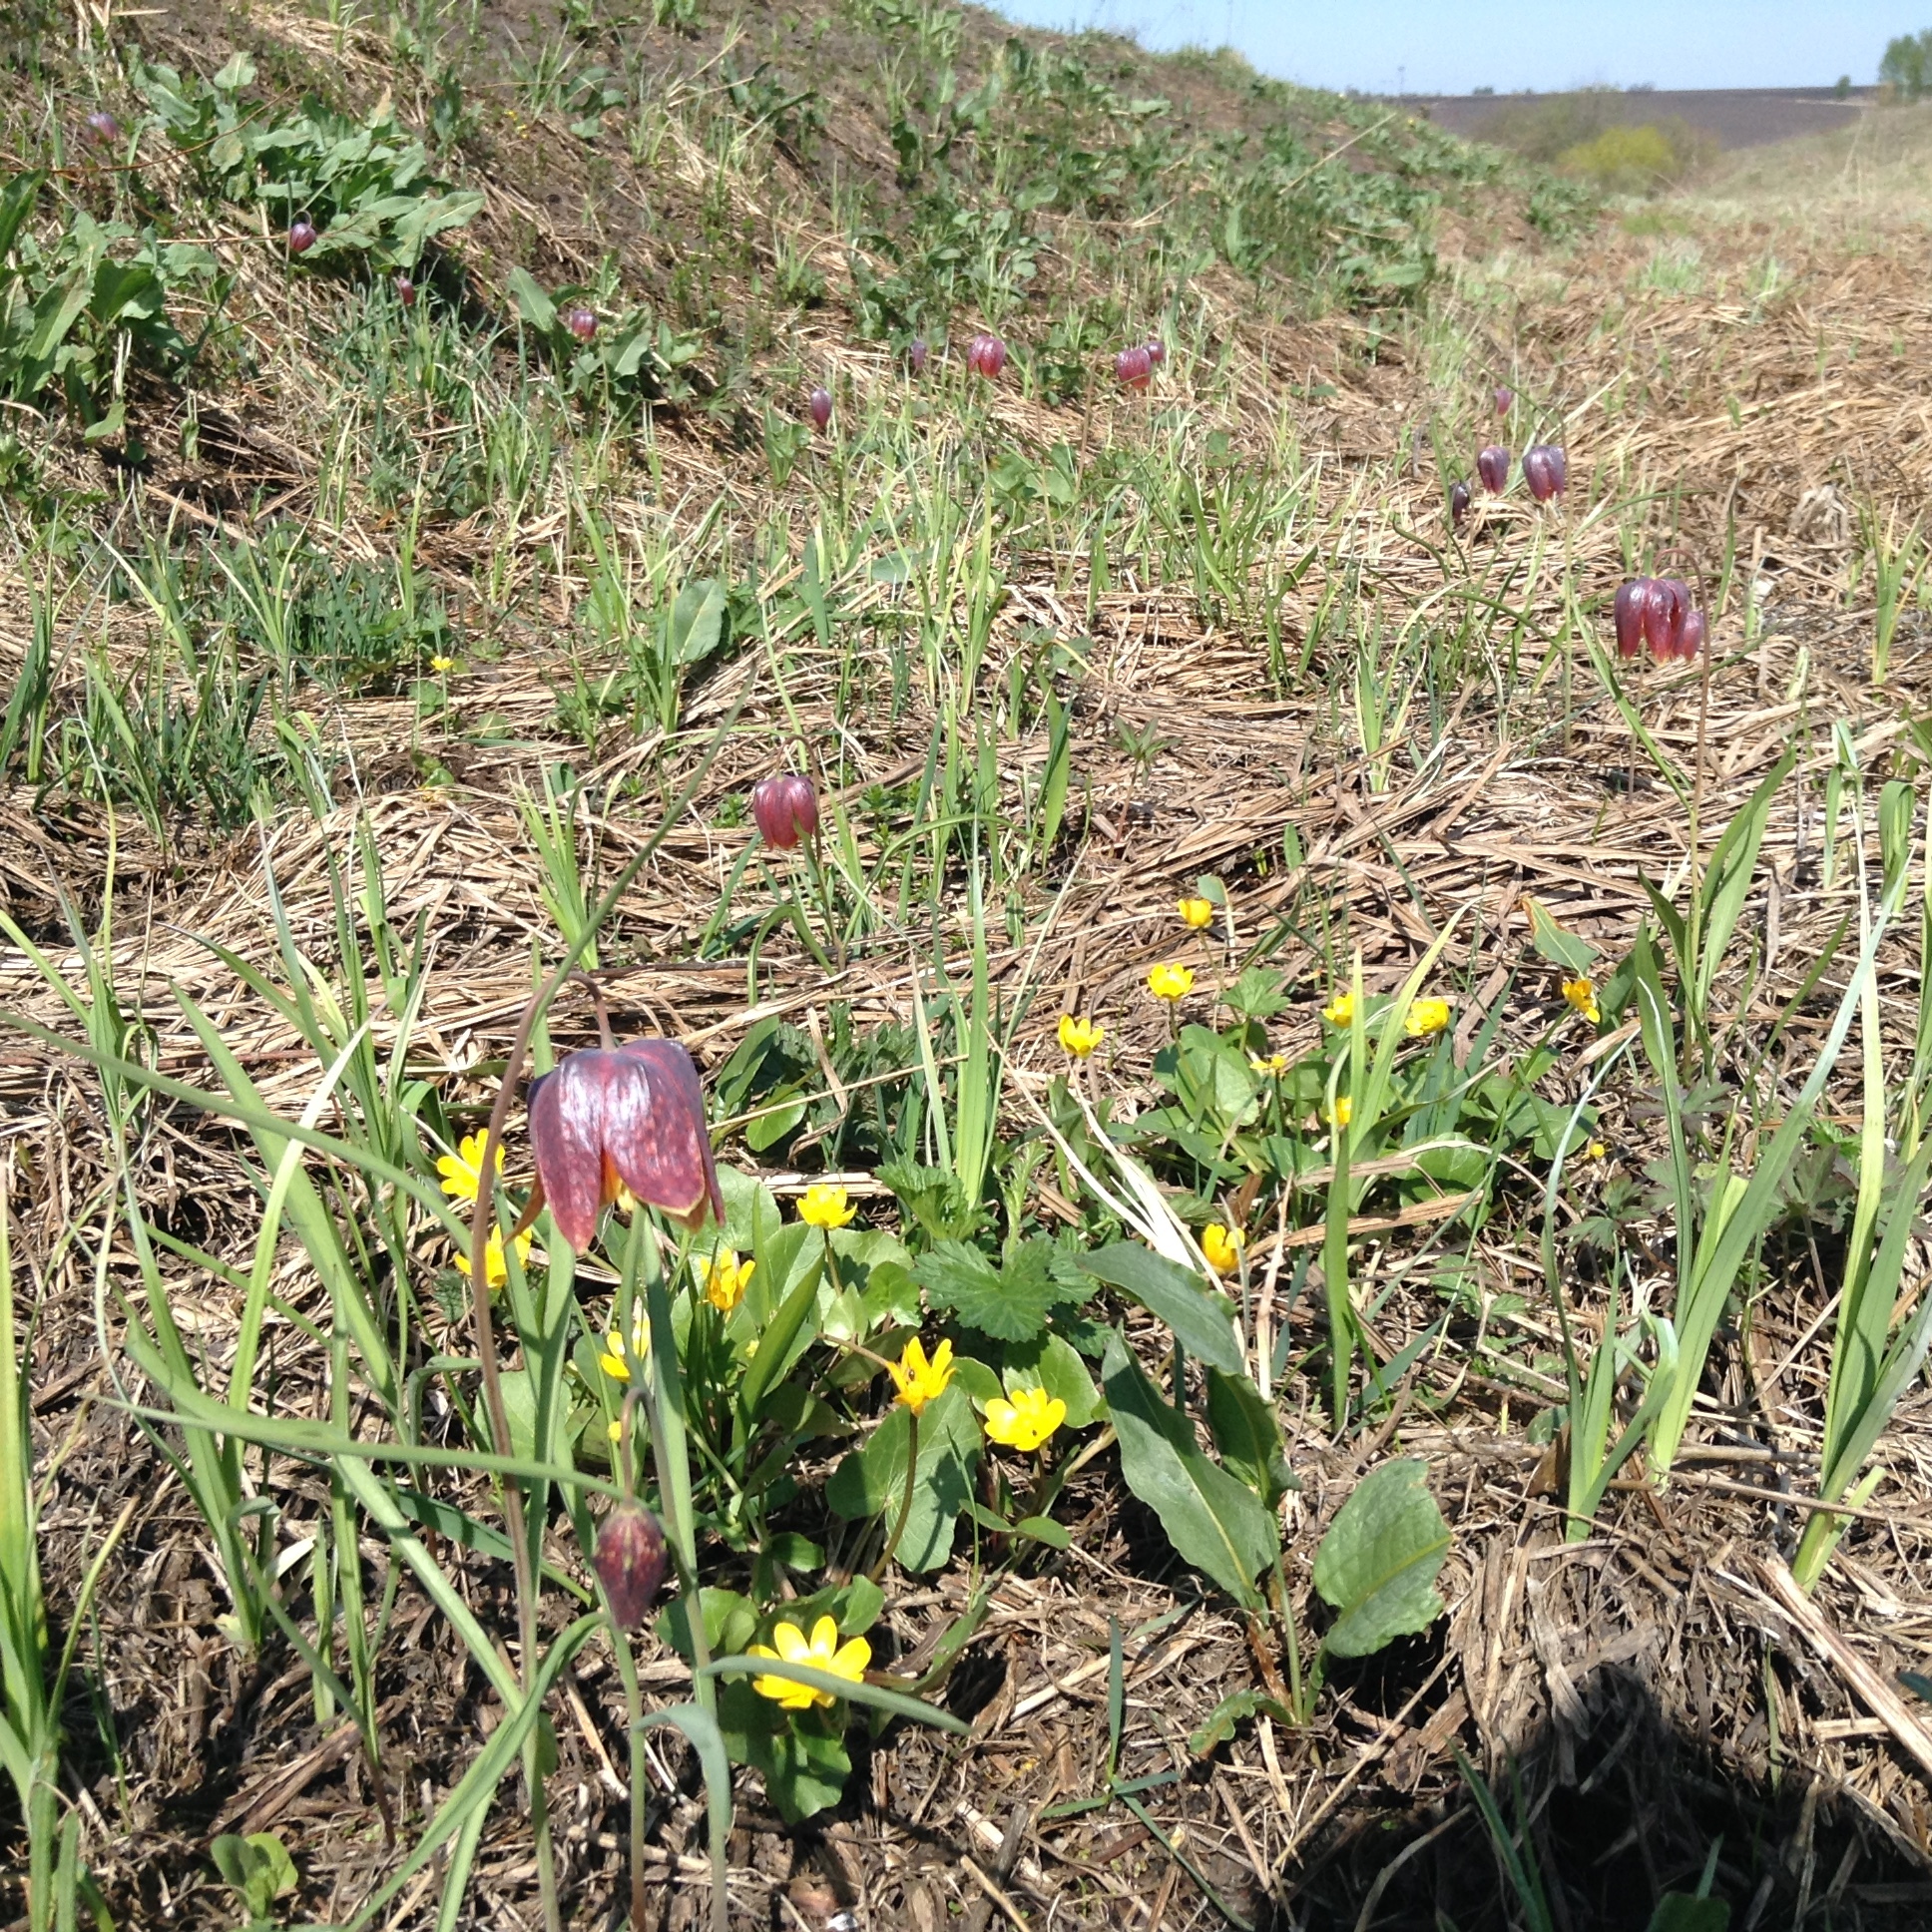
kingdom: Plantae
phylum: Tracheophyta
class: Liliopsida
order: Liliales
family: Liliaceae
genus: Fritillaria
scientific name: Fritillaria meleagris
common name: Fritillary
